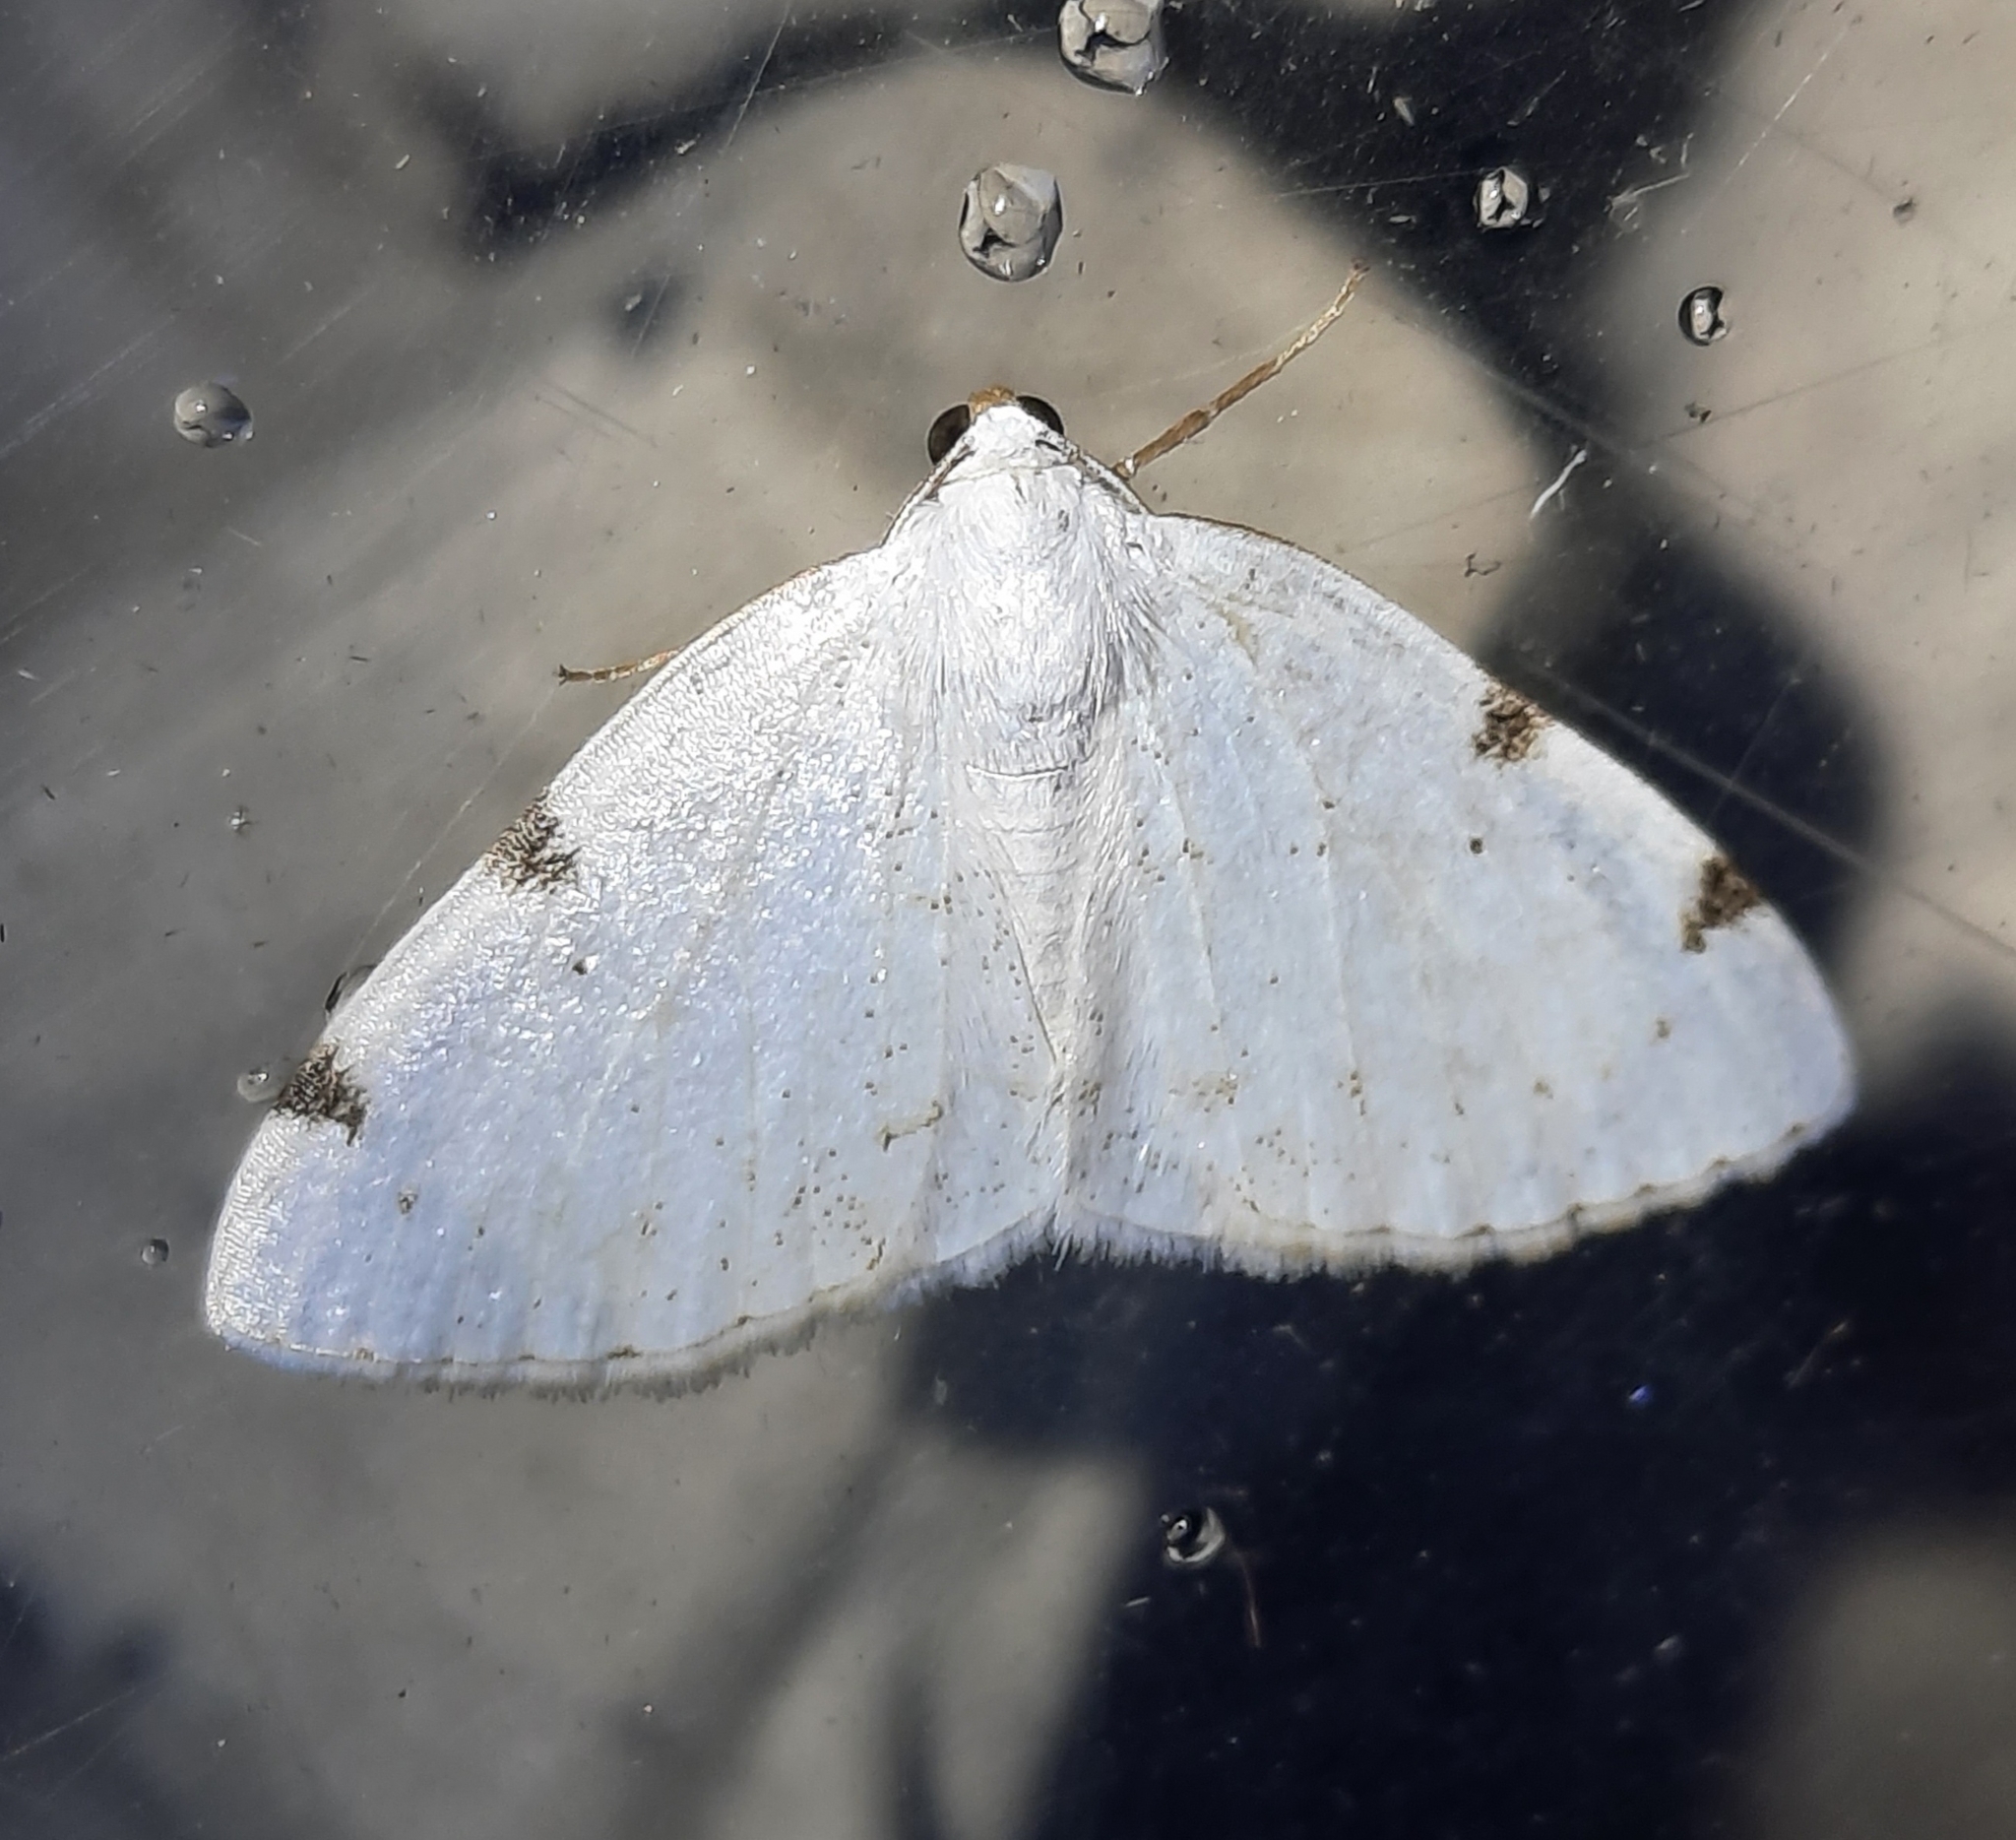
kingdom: Animalia
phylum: Arthropoda
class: Insecta
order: Lepidoptera
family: Geometridae
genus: Lomographa
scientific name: Lomographa bimaculata
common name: White-pinion spotted
